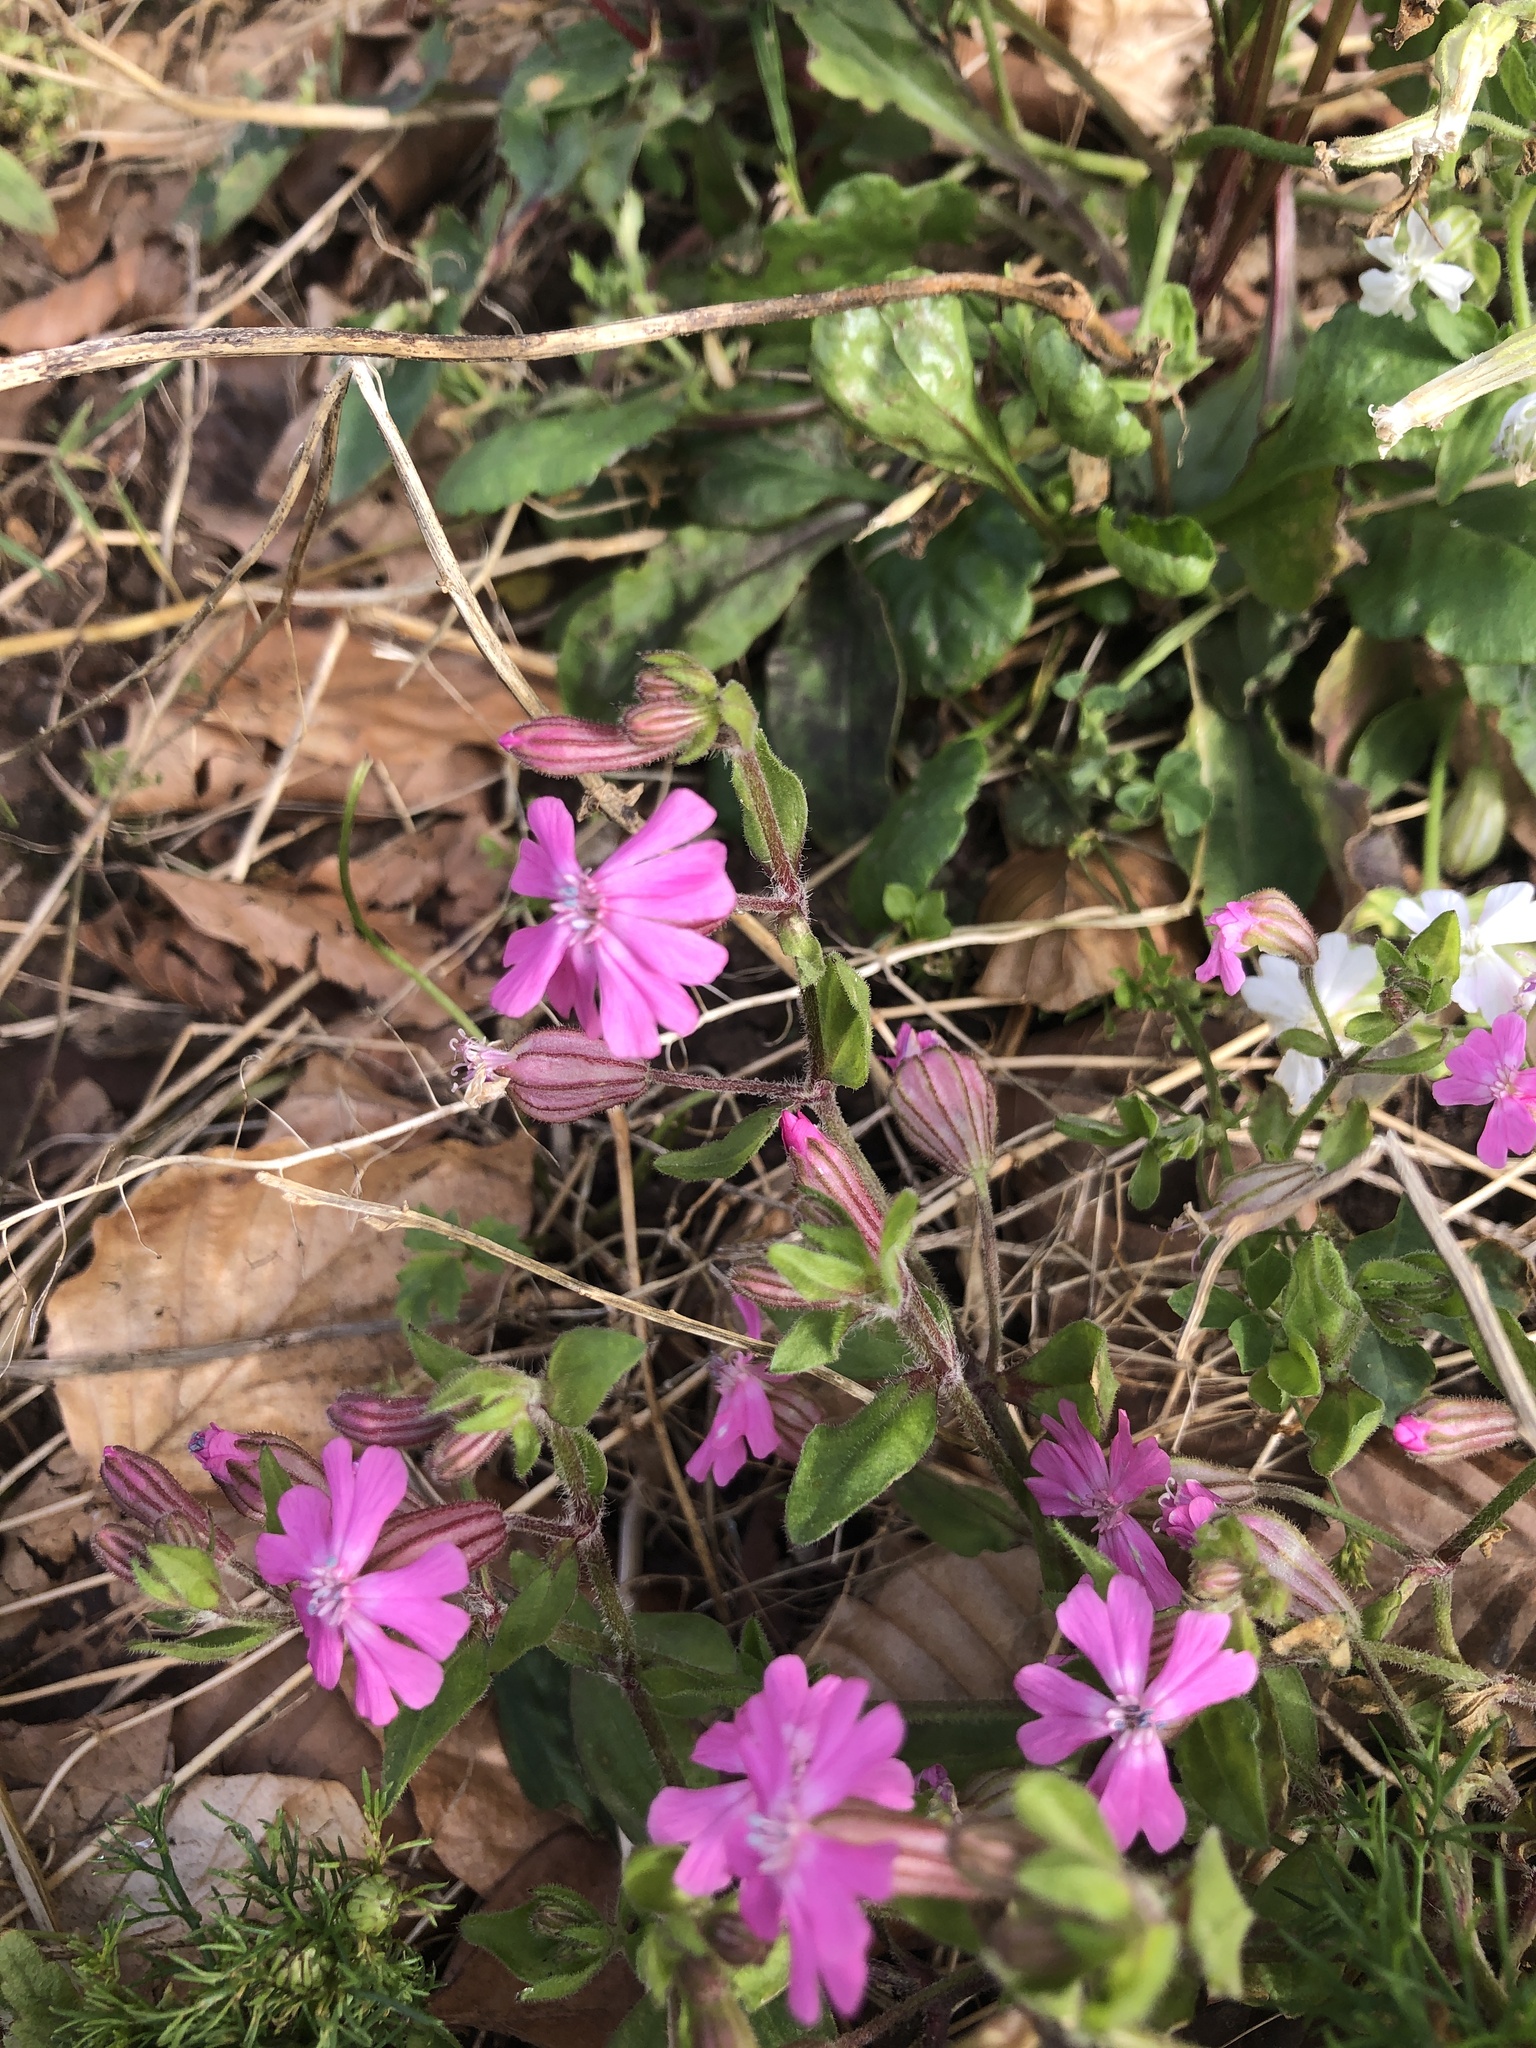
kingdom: Plantae
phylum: Tracheophyta
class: Magnoliopsida
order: Caryophyllales
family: Caryophyllaceae
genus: Silene
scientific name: Silene dioica
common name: Red campion
